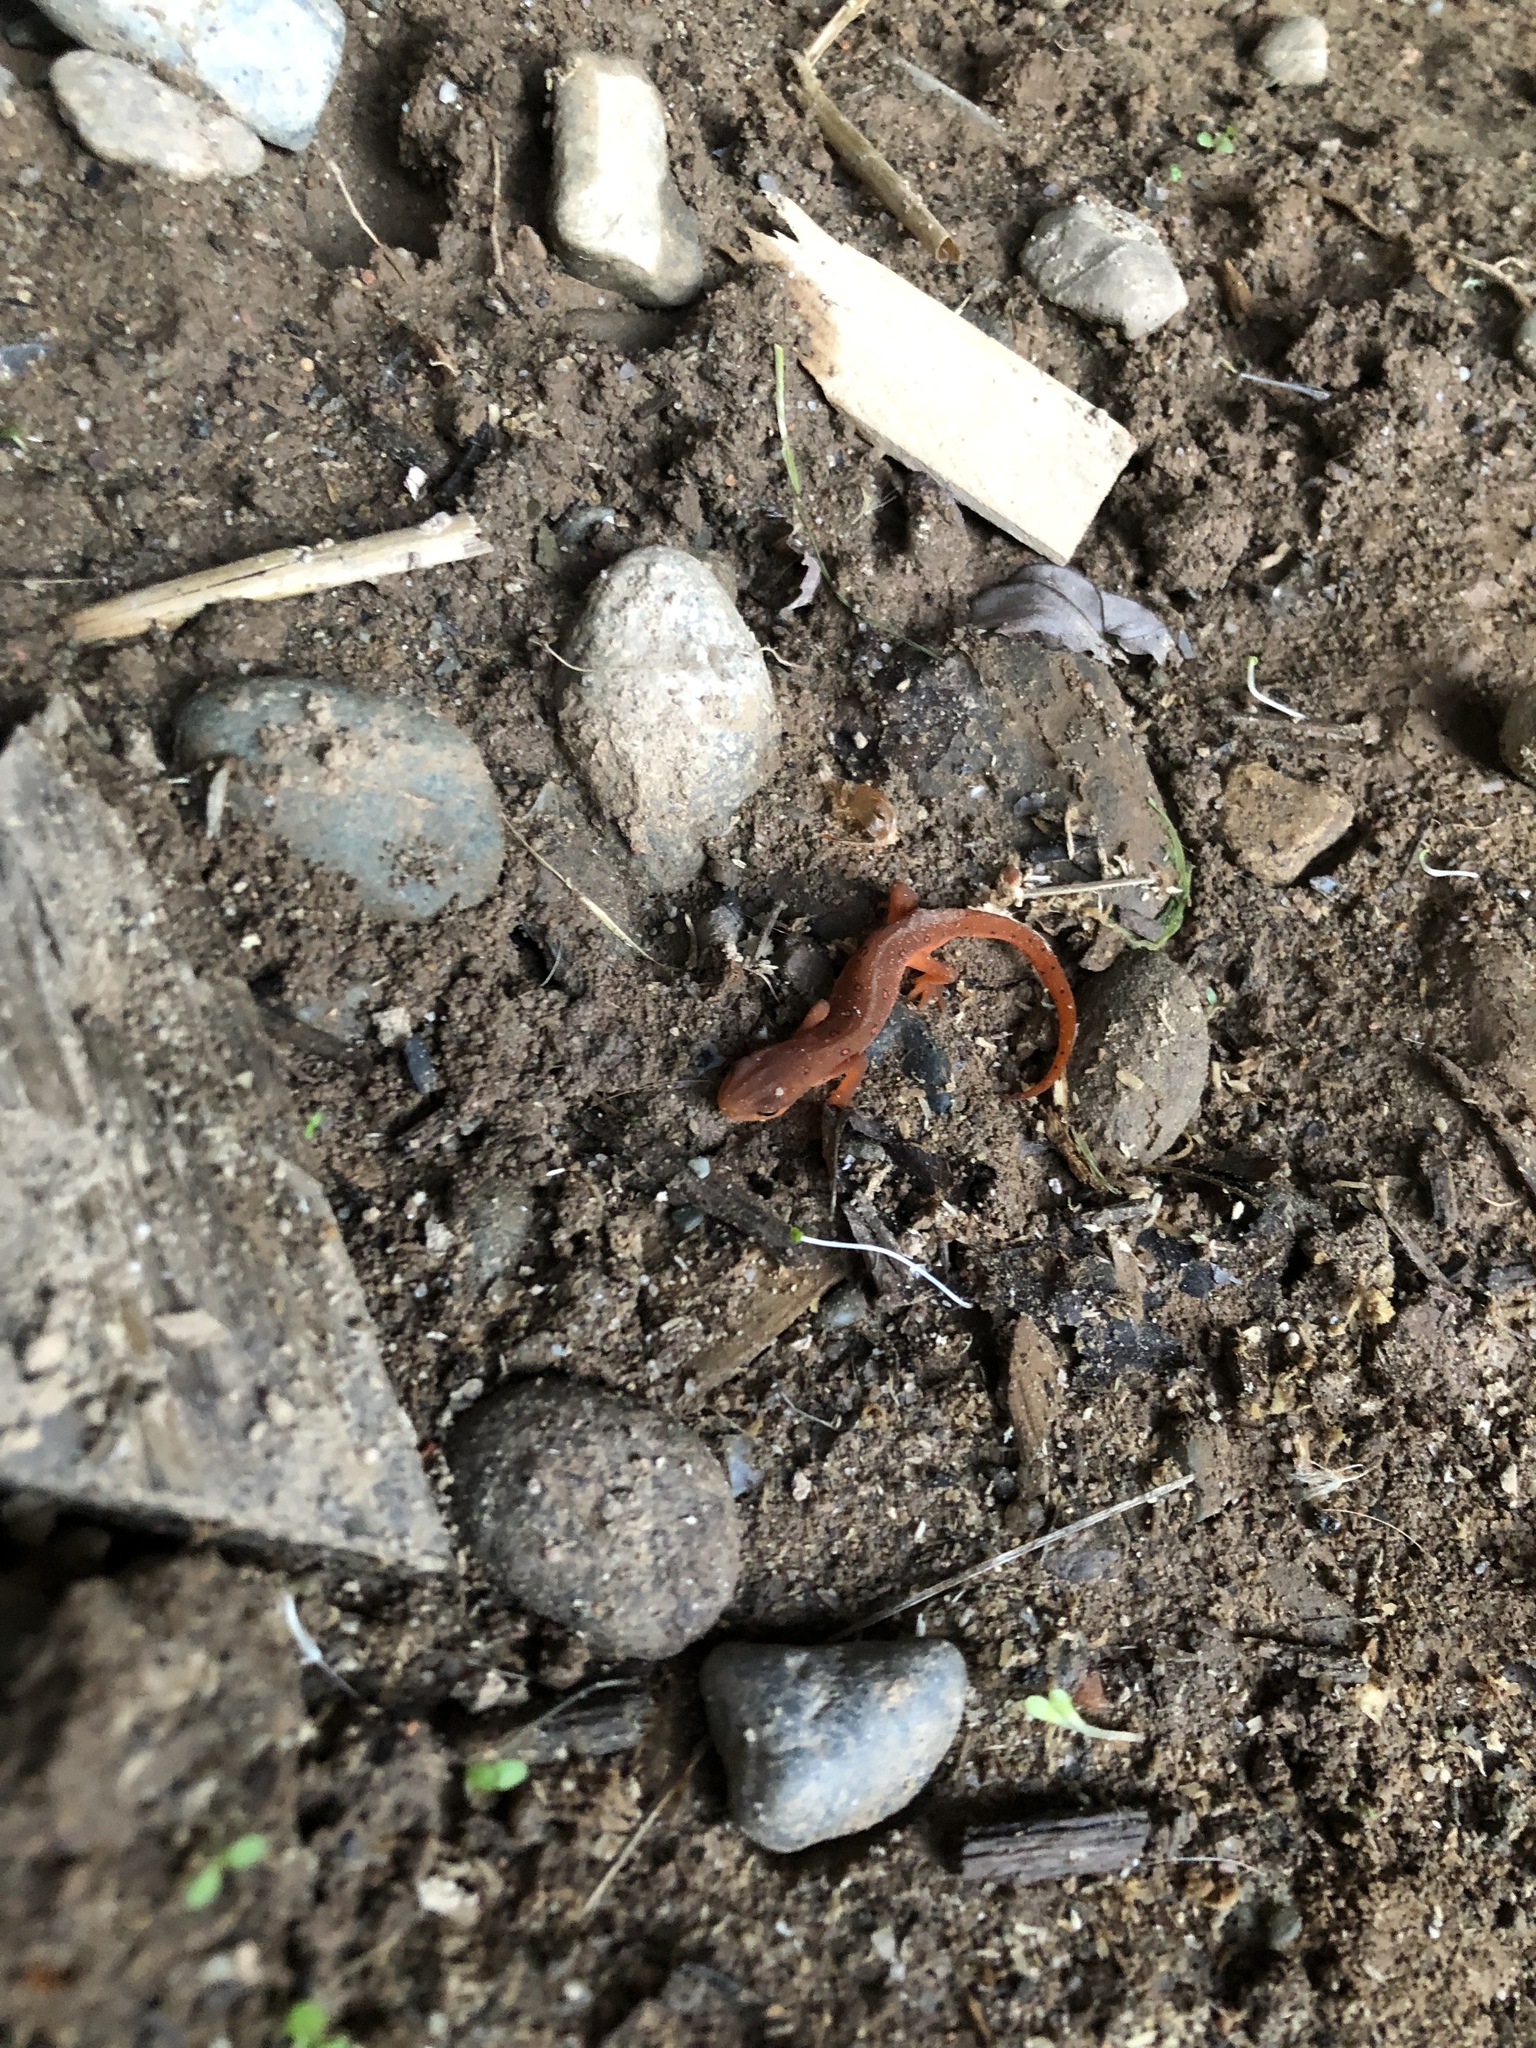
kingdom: Animalia
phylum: Chordata
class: Amphibia
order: Caudata
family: Salamandridae
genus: Notophthalmus
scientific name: Notophthalmus viridescens
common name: Eastern newt
